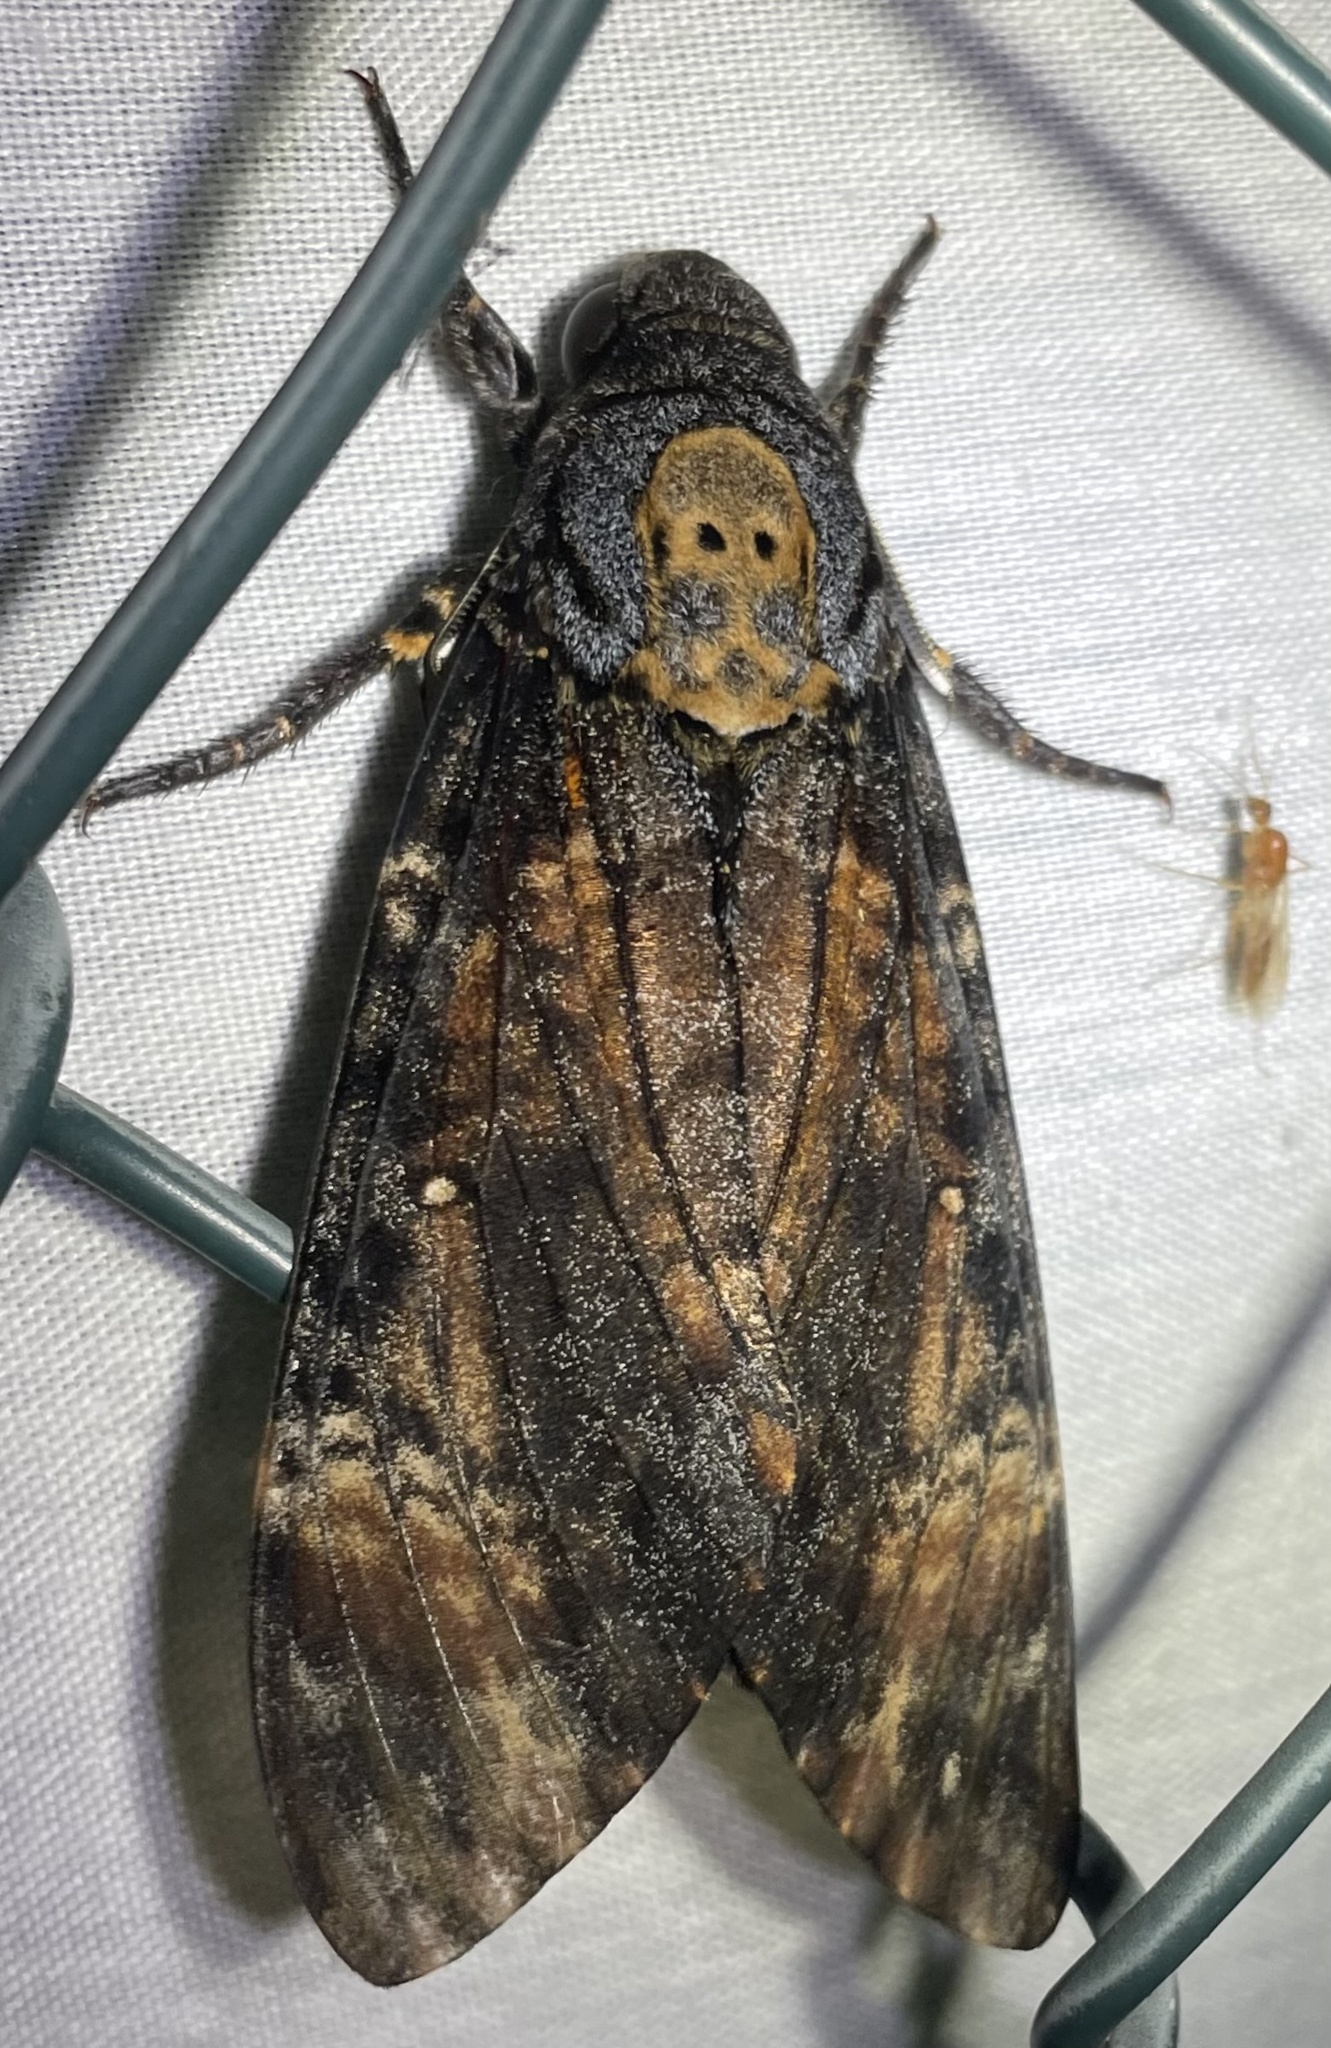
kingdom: Animalia
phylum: Arthropoda
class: Insecta
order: Lepidoptera
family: Sphingidae
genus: Acherontia
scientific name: Acherontia atropos
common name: Death's-head hawk moth
